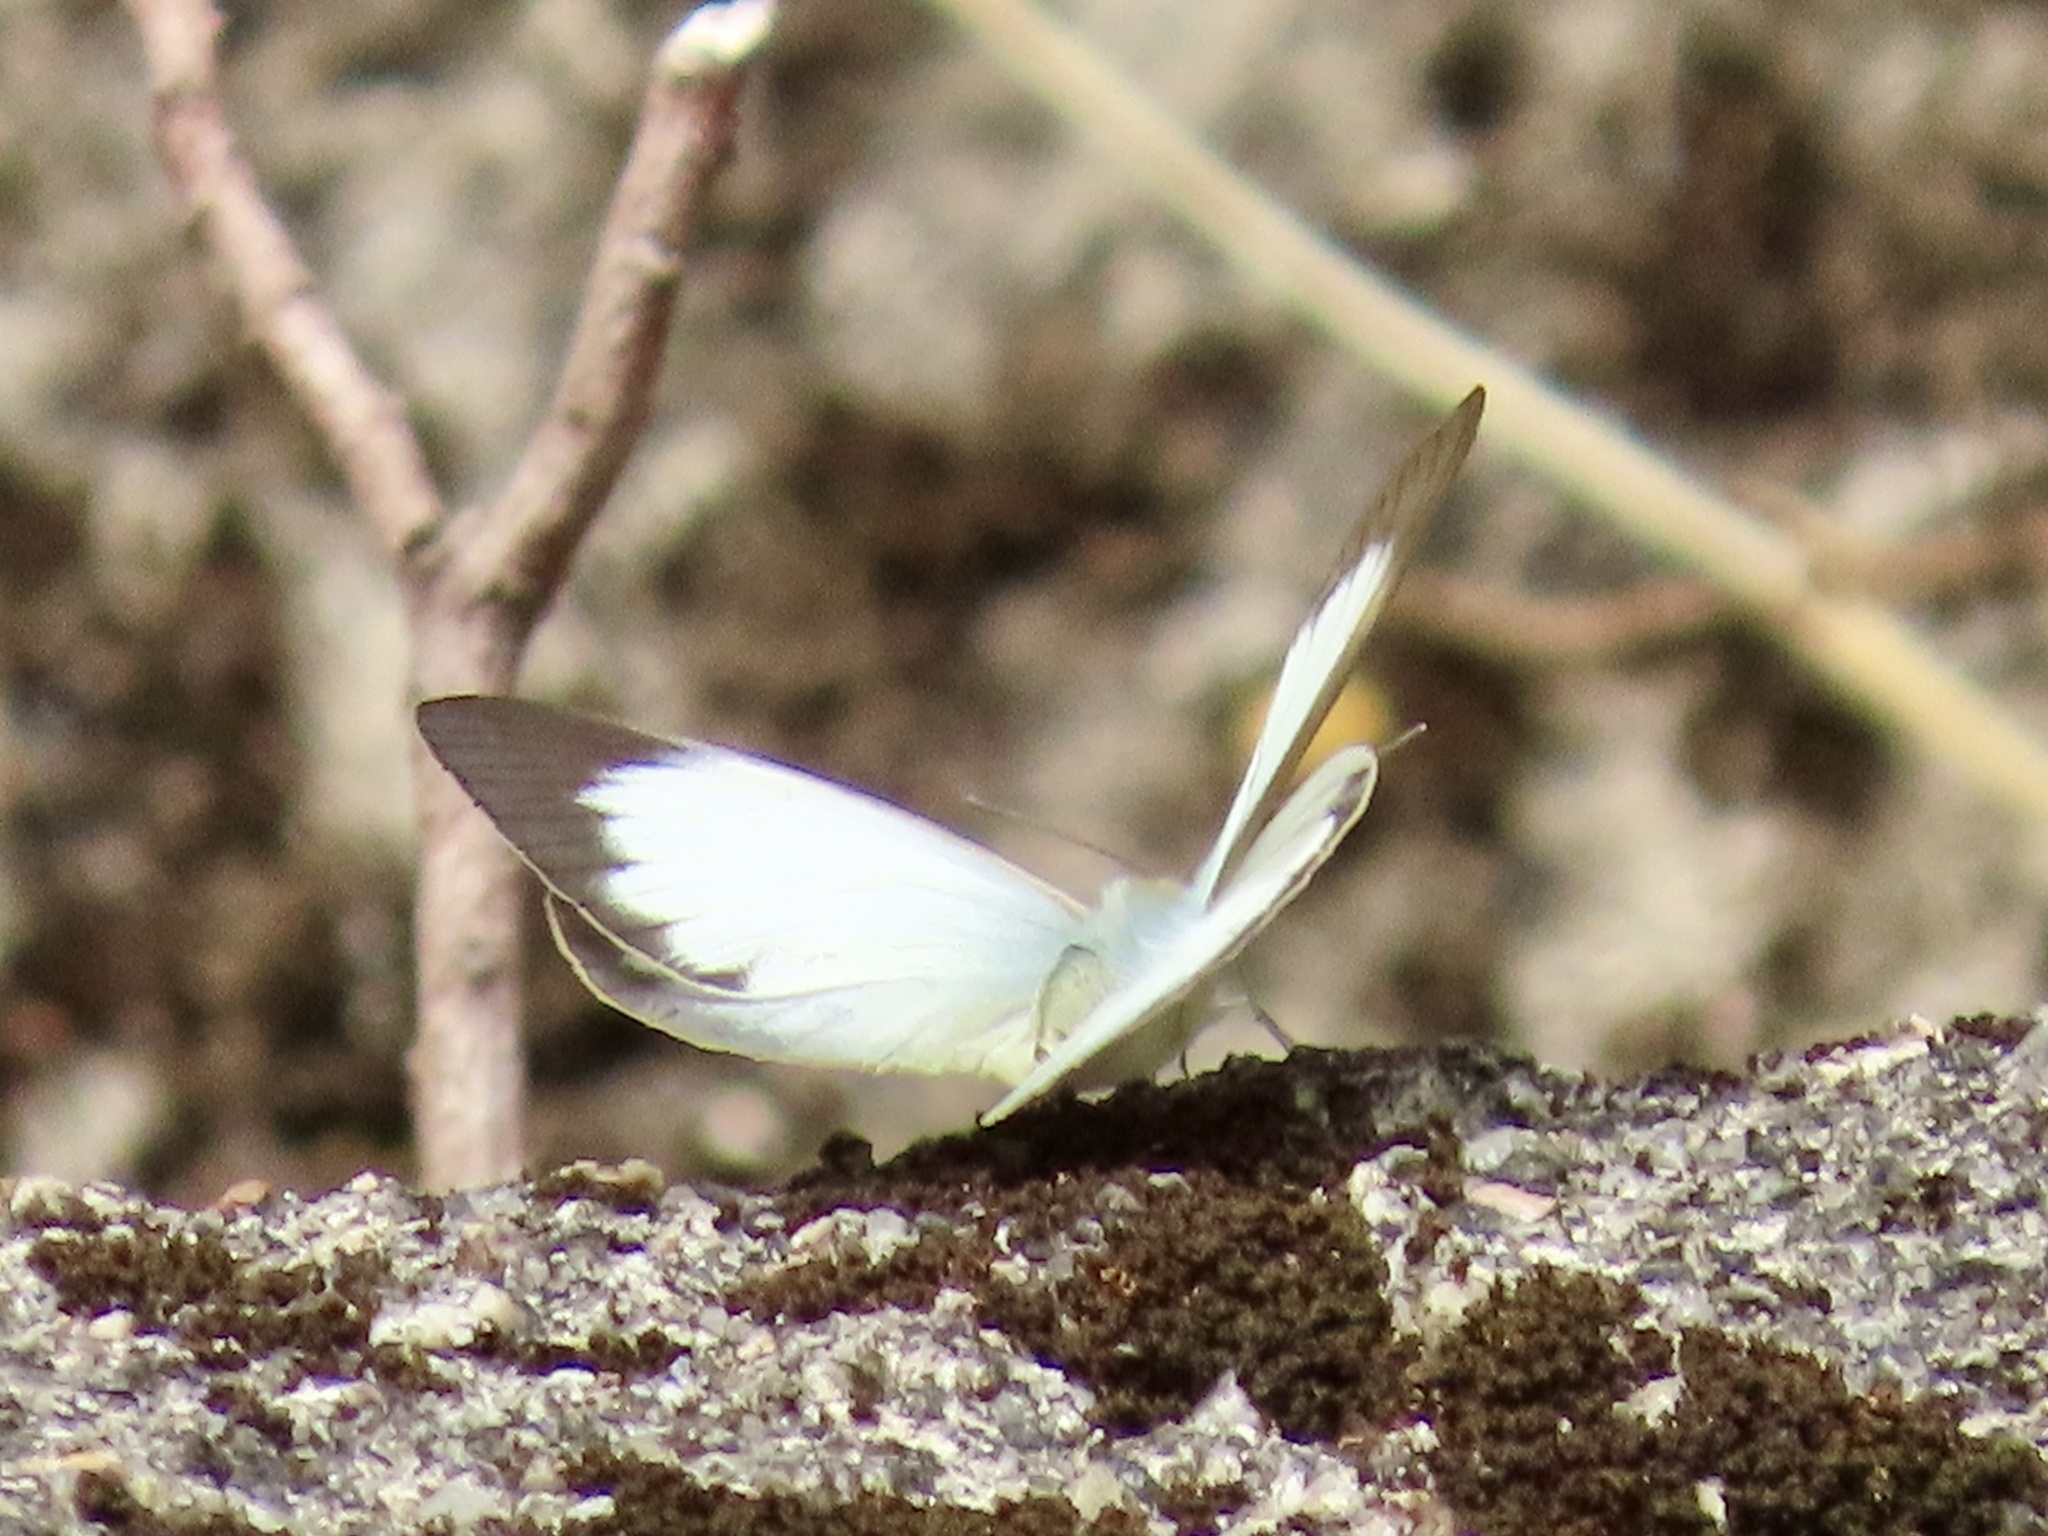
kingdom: Animalia
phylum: Arthropoda
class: Insecta
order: Lepidoptera
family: Pieridae
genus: Cepora
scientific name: Cepora nadina
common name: Lesser gull
